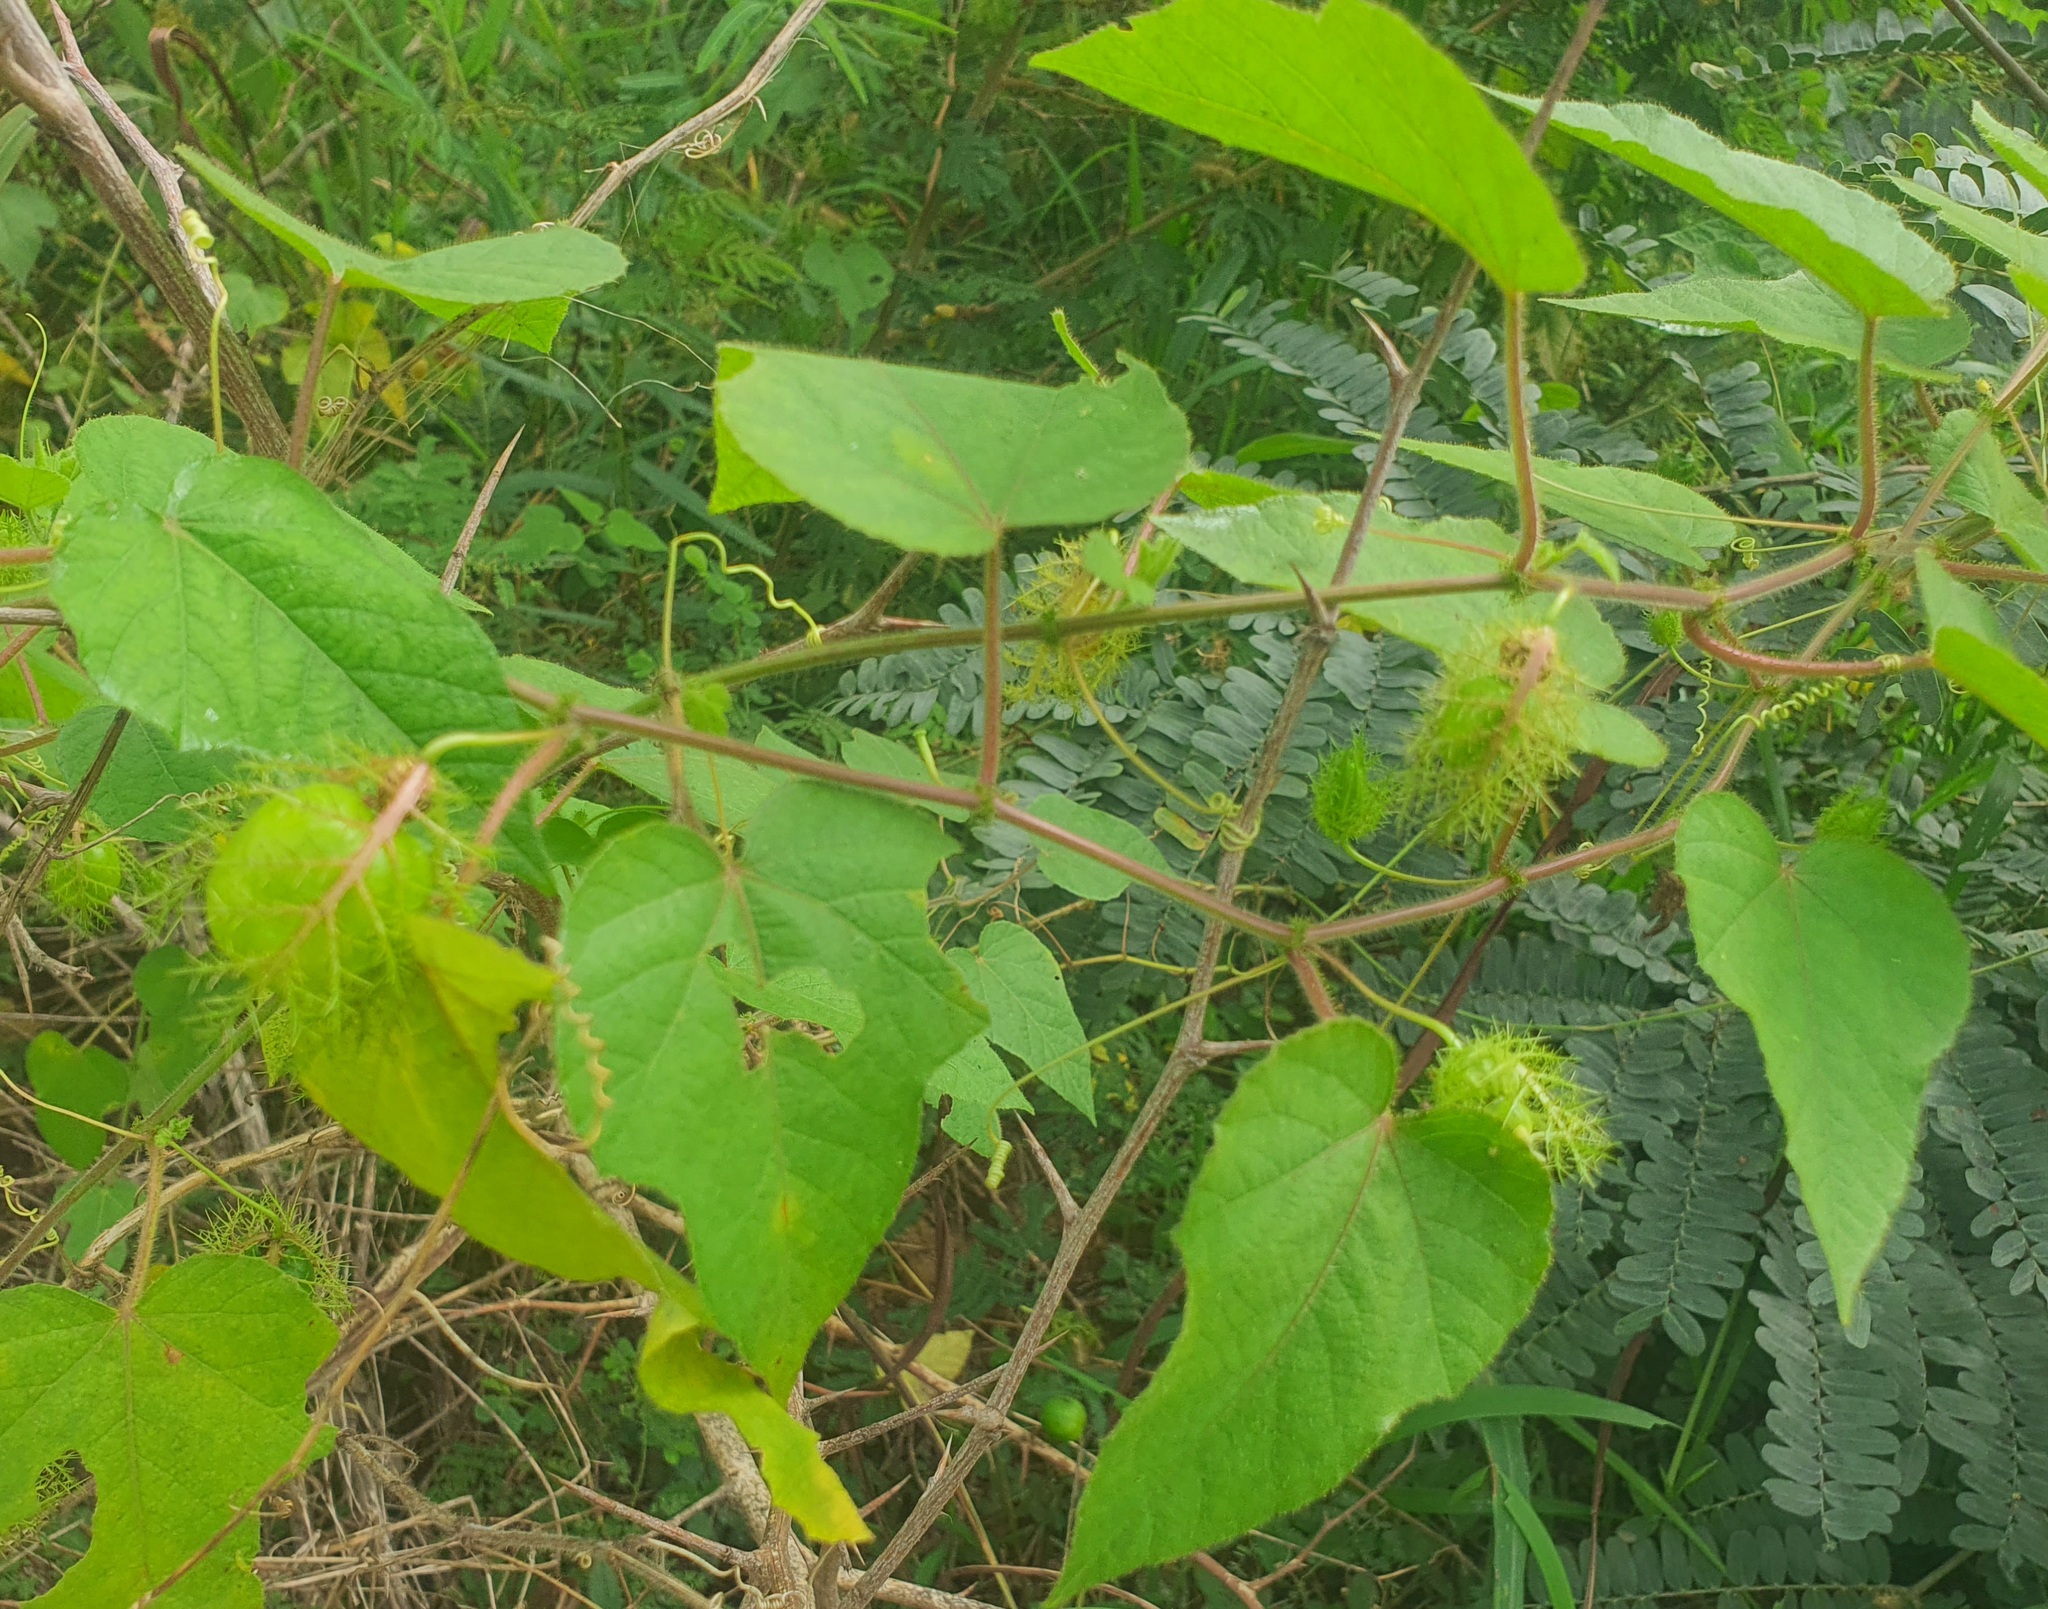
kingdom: Plantae
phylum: Tracheophyta
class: Magnoliopsida
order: Malpighiales
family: Passifloraceae
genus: Passiflora
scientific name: Passiflora foetida
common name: Fetid passionflower
